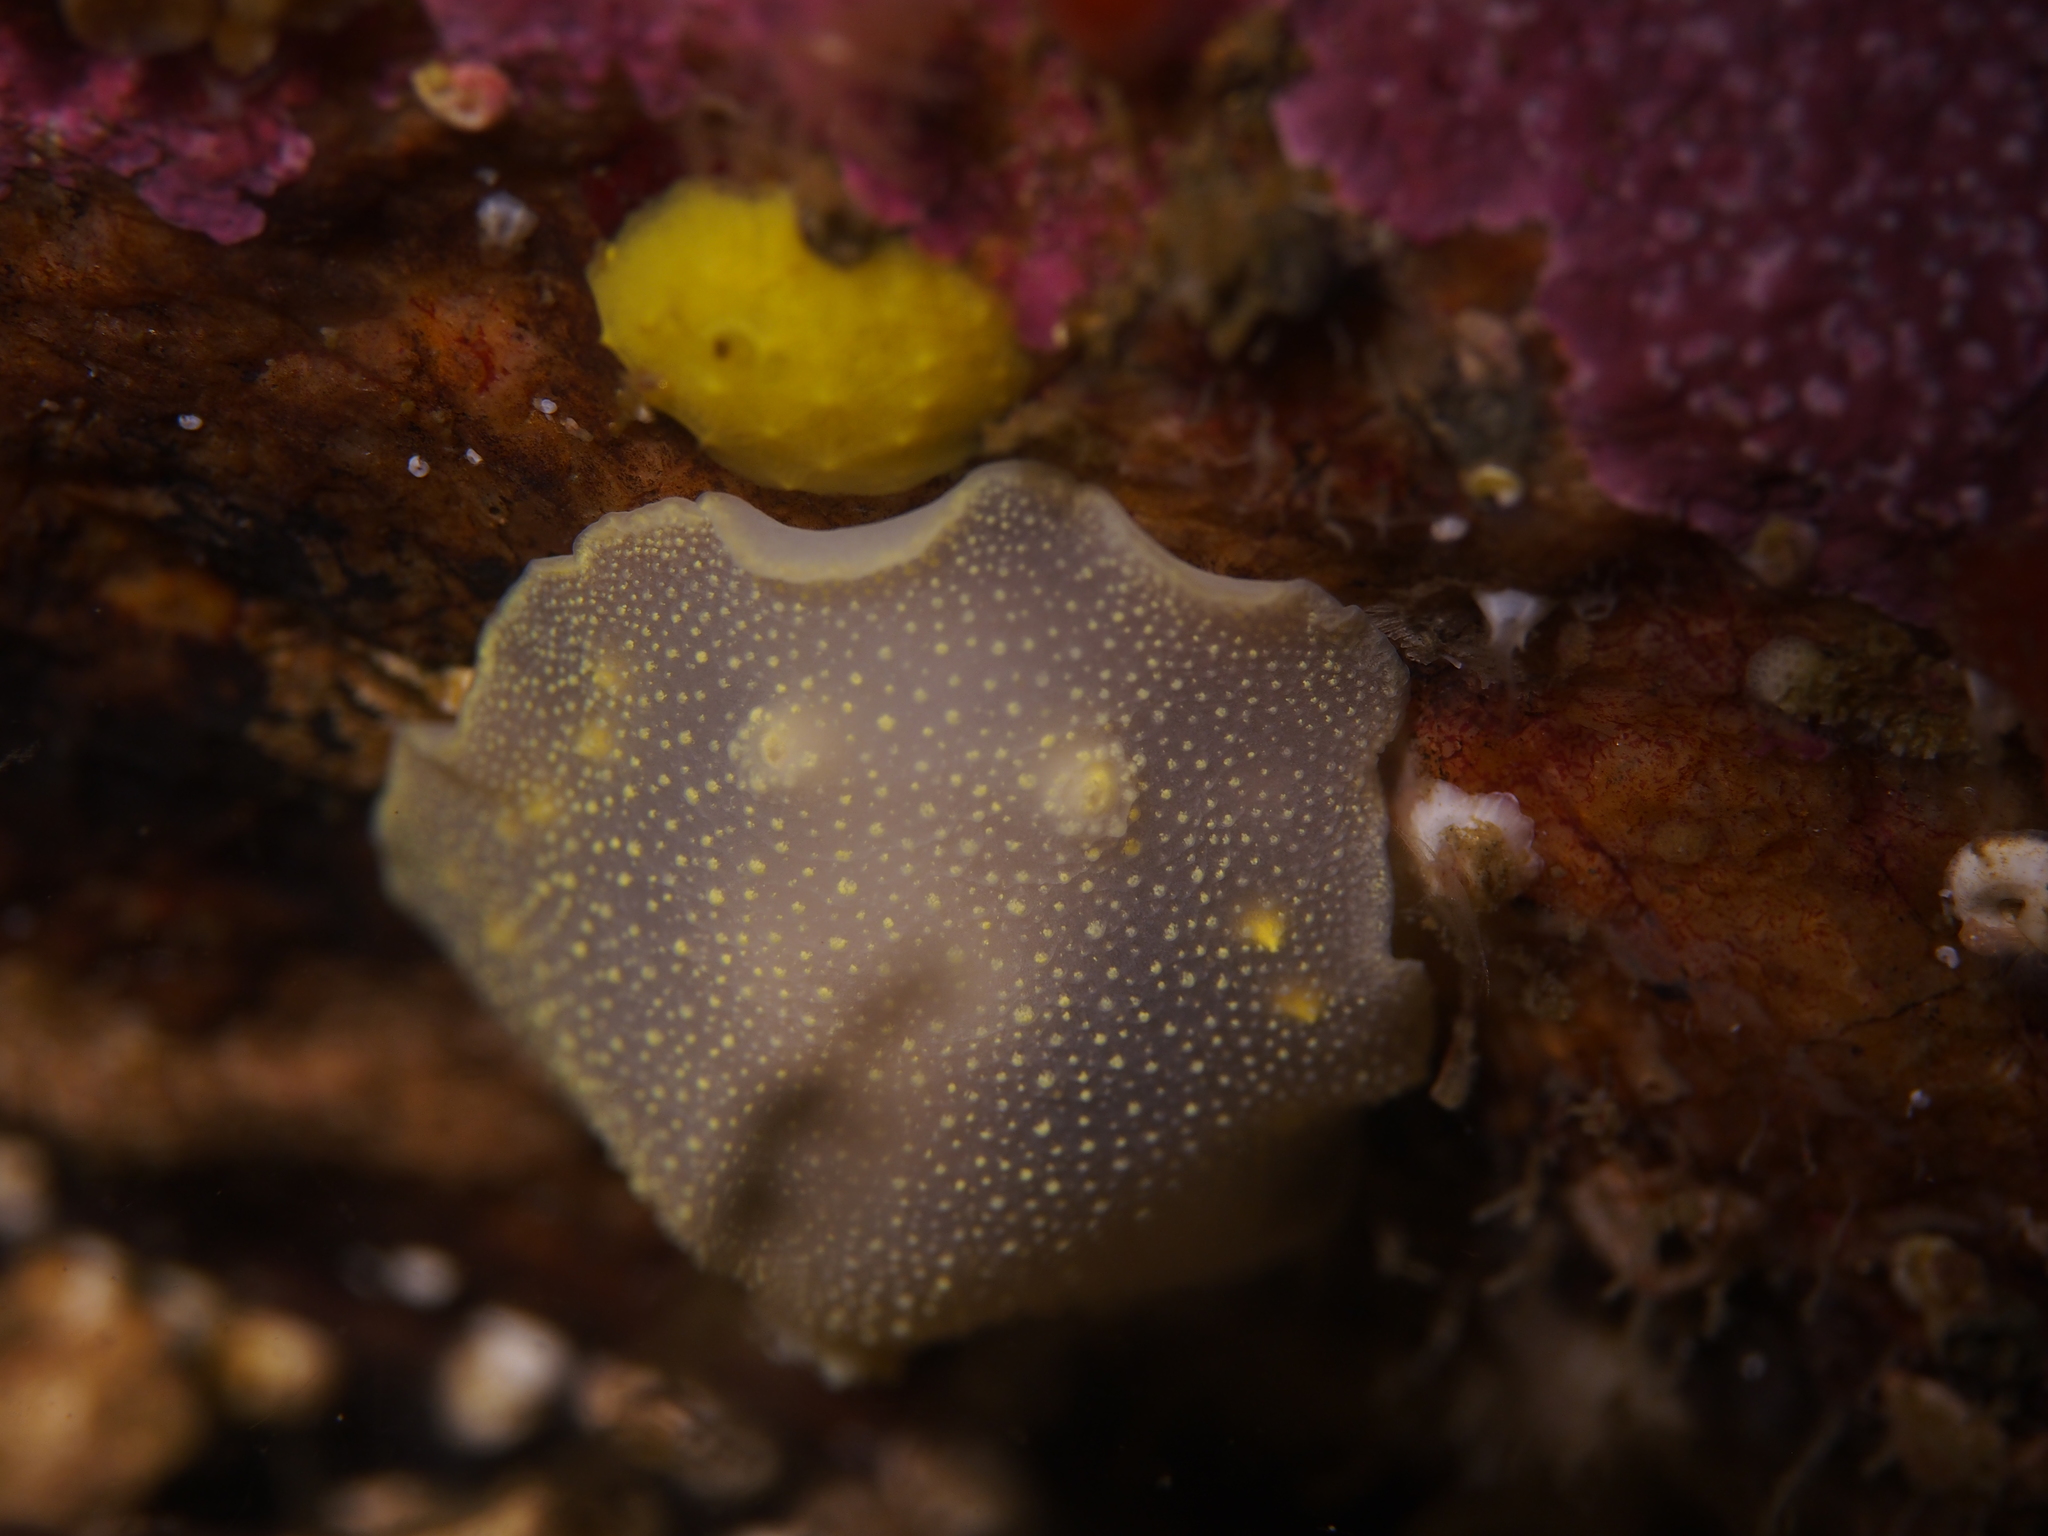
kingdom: Animalia
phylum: Mollusca
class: Gastropoda
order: Nudibranchia
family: Cadlinidae
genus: Cadlina
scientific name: Cadlina laevis
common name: White atlantic cadlina
